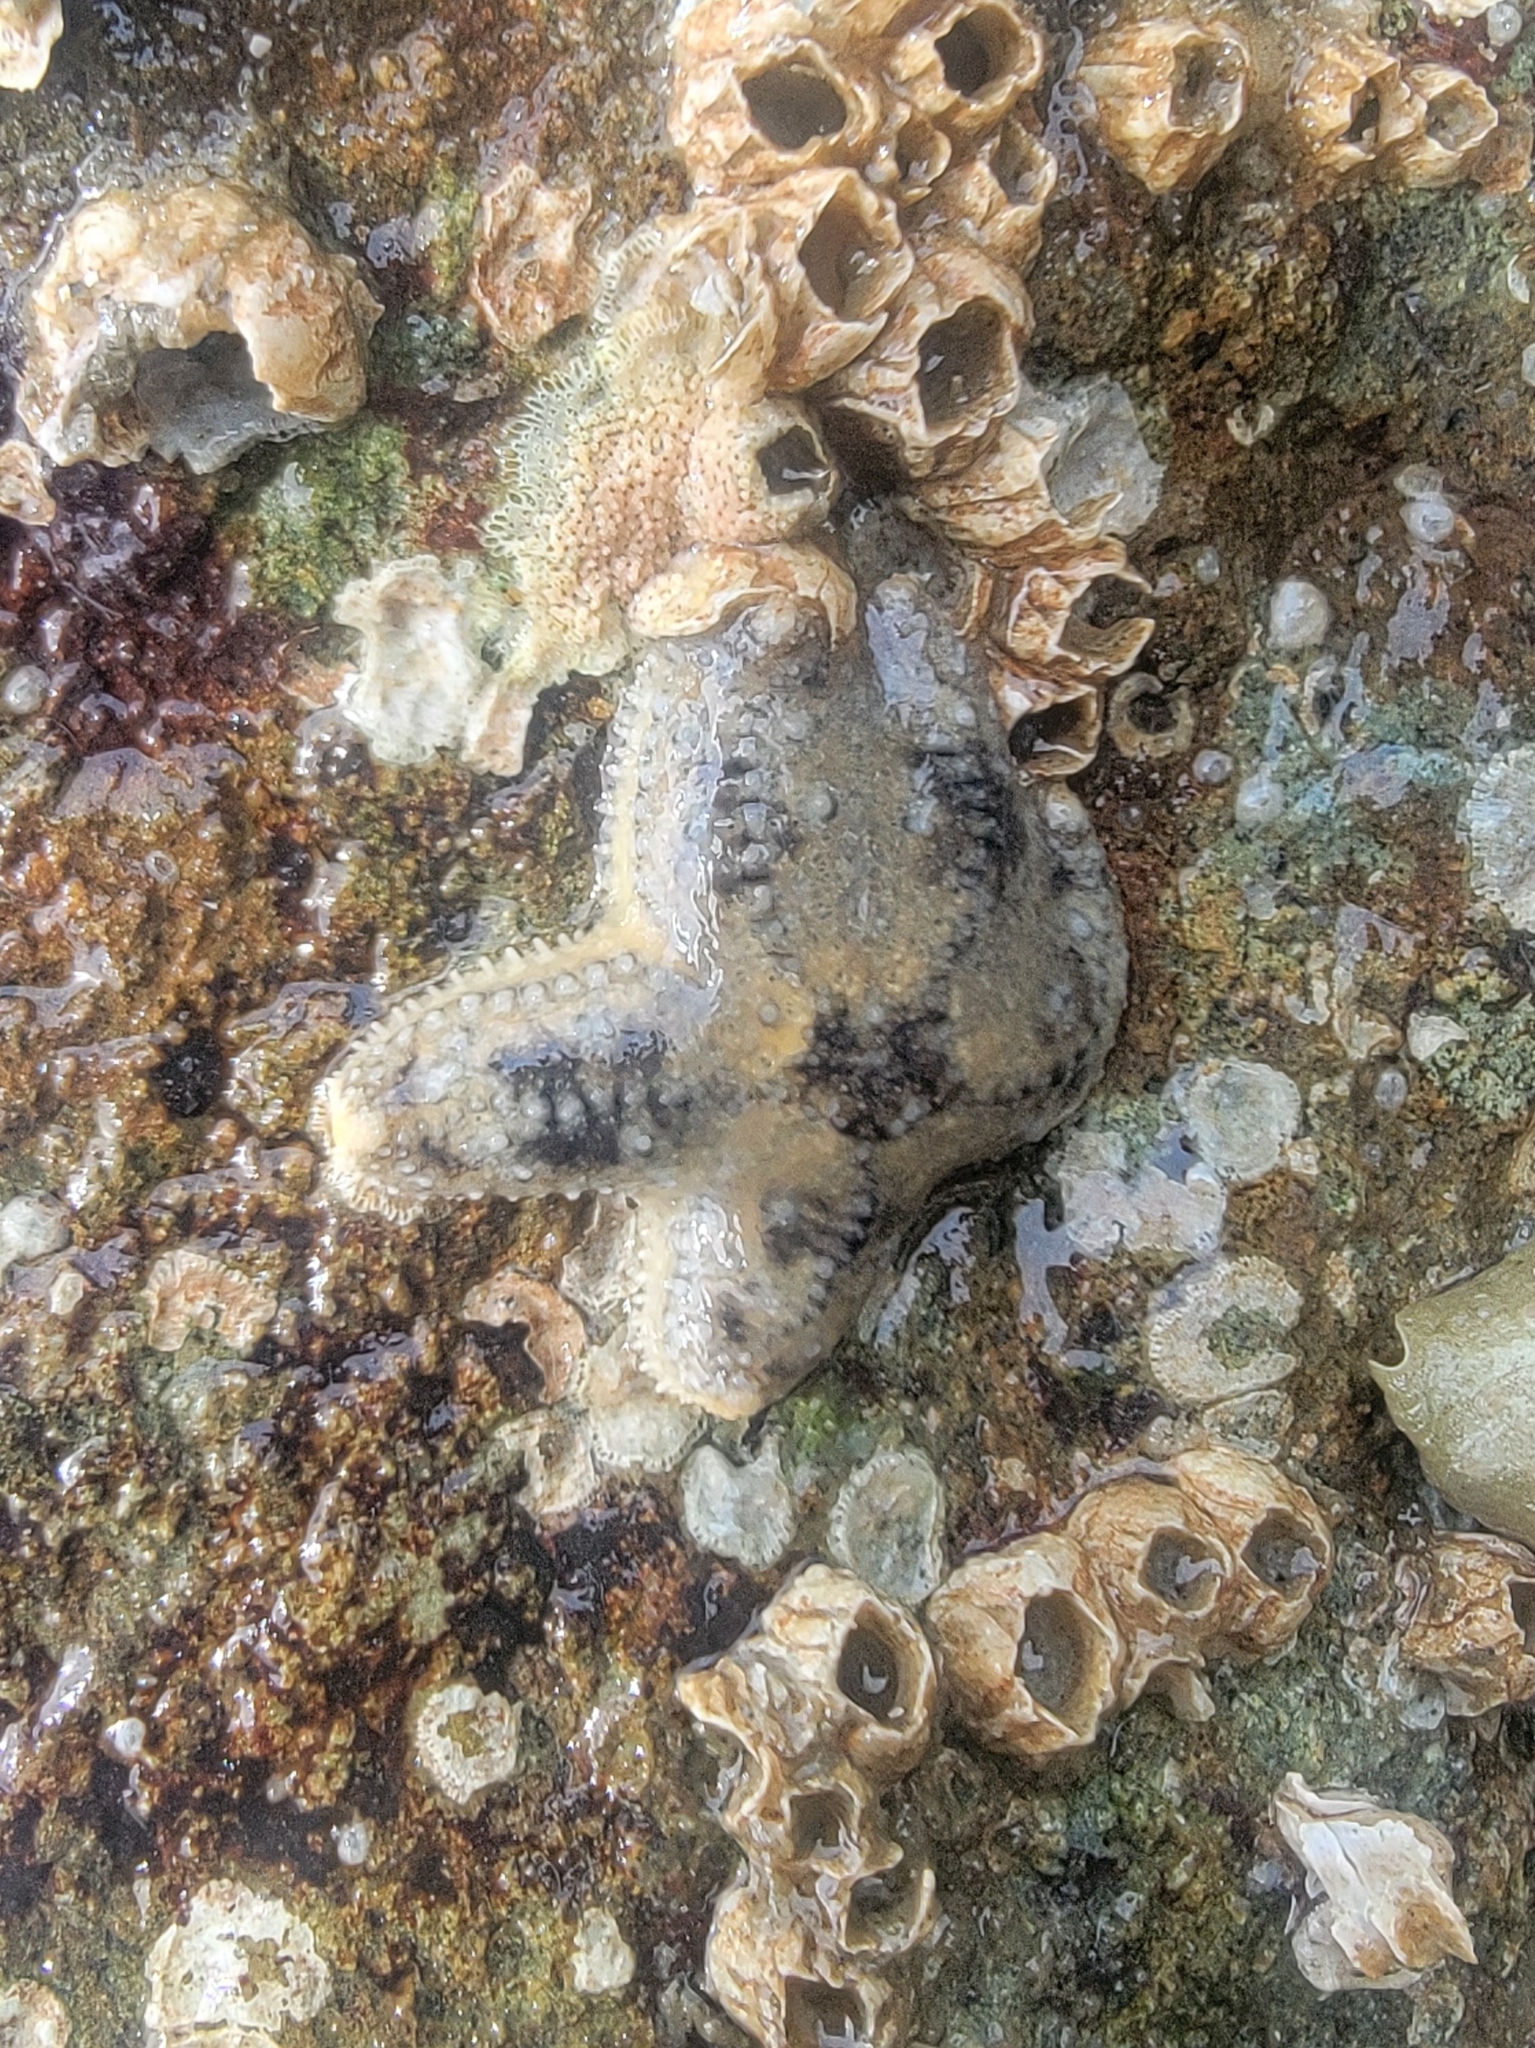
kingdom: Animalia
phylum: Echinodermata
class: Asteroidea
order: Forcipulatida
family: Asteriidae
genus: Pisaster
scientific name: Pisaster ochraceus
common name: Ochre stars
